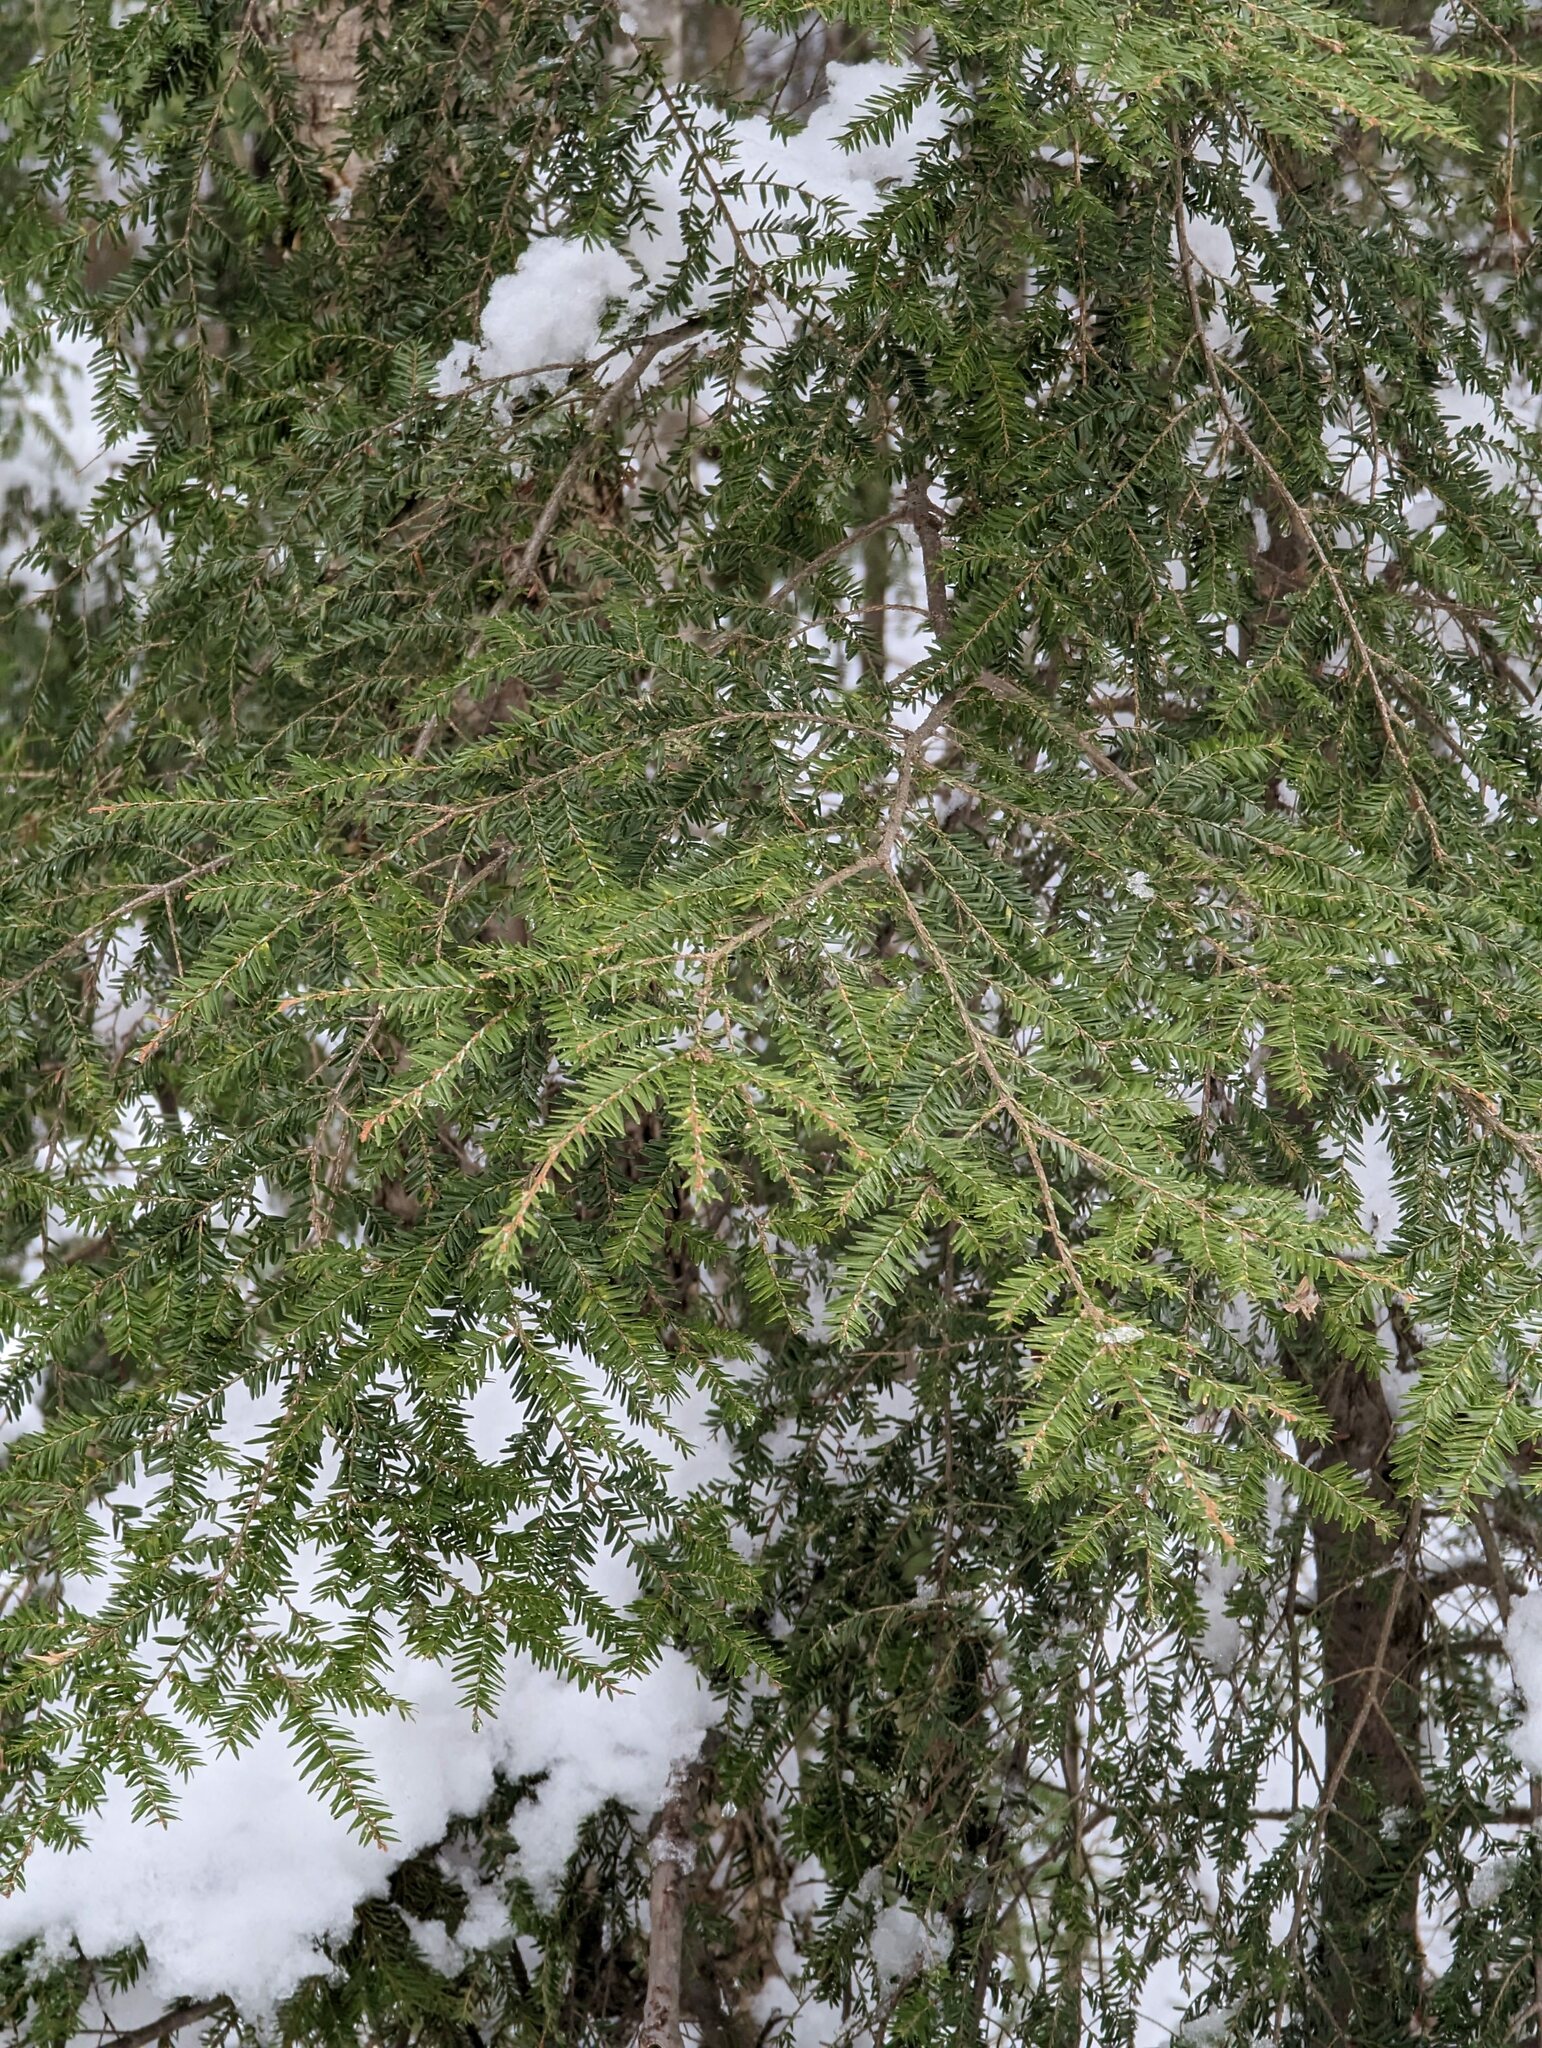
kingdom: Plantae
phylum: Tracheophyta
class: Pinopsida
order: Pinales
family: Pinaceae
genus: Tsuga
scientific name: Tsuga canadensis
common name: Eastern hemlock
